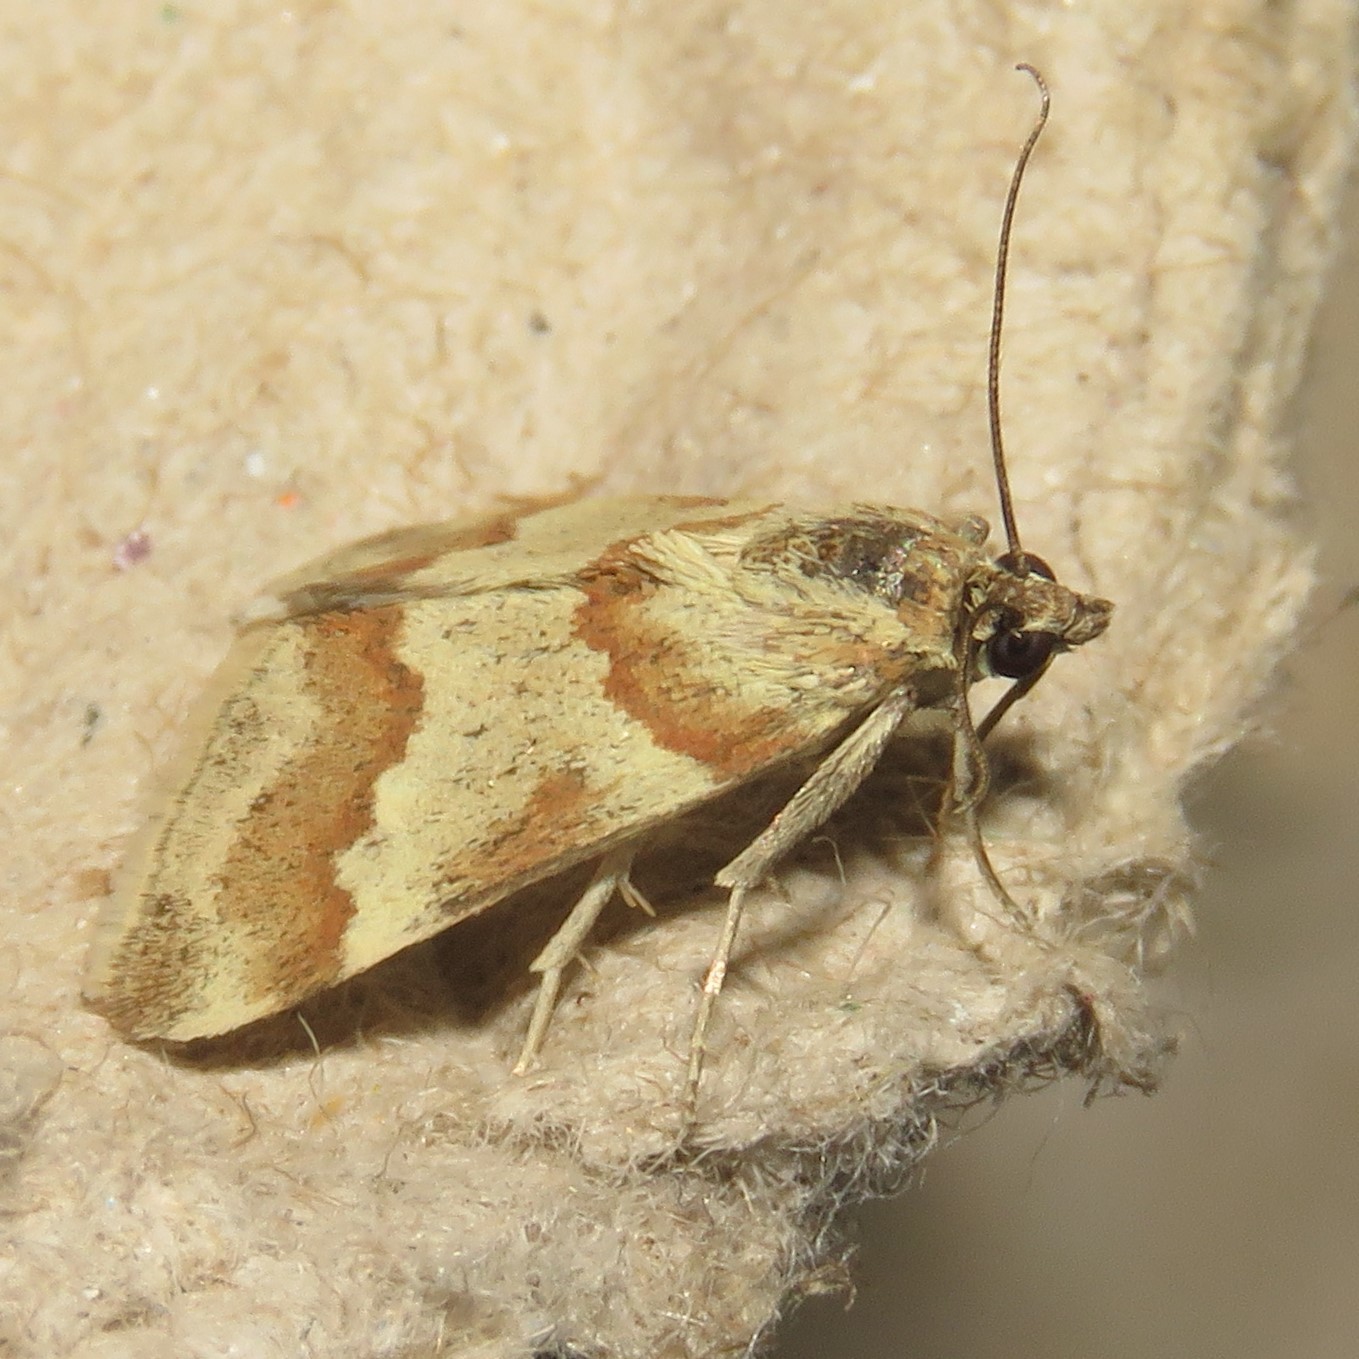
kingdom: Animalia
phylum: Arthropoda
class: Insecta
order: Lepidoptera
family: Crambidae
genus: Noctuelia
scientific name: Noctuelia Mimoschinia rufofascialis
